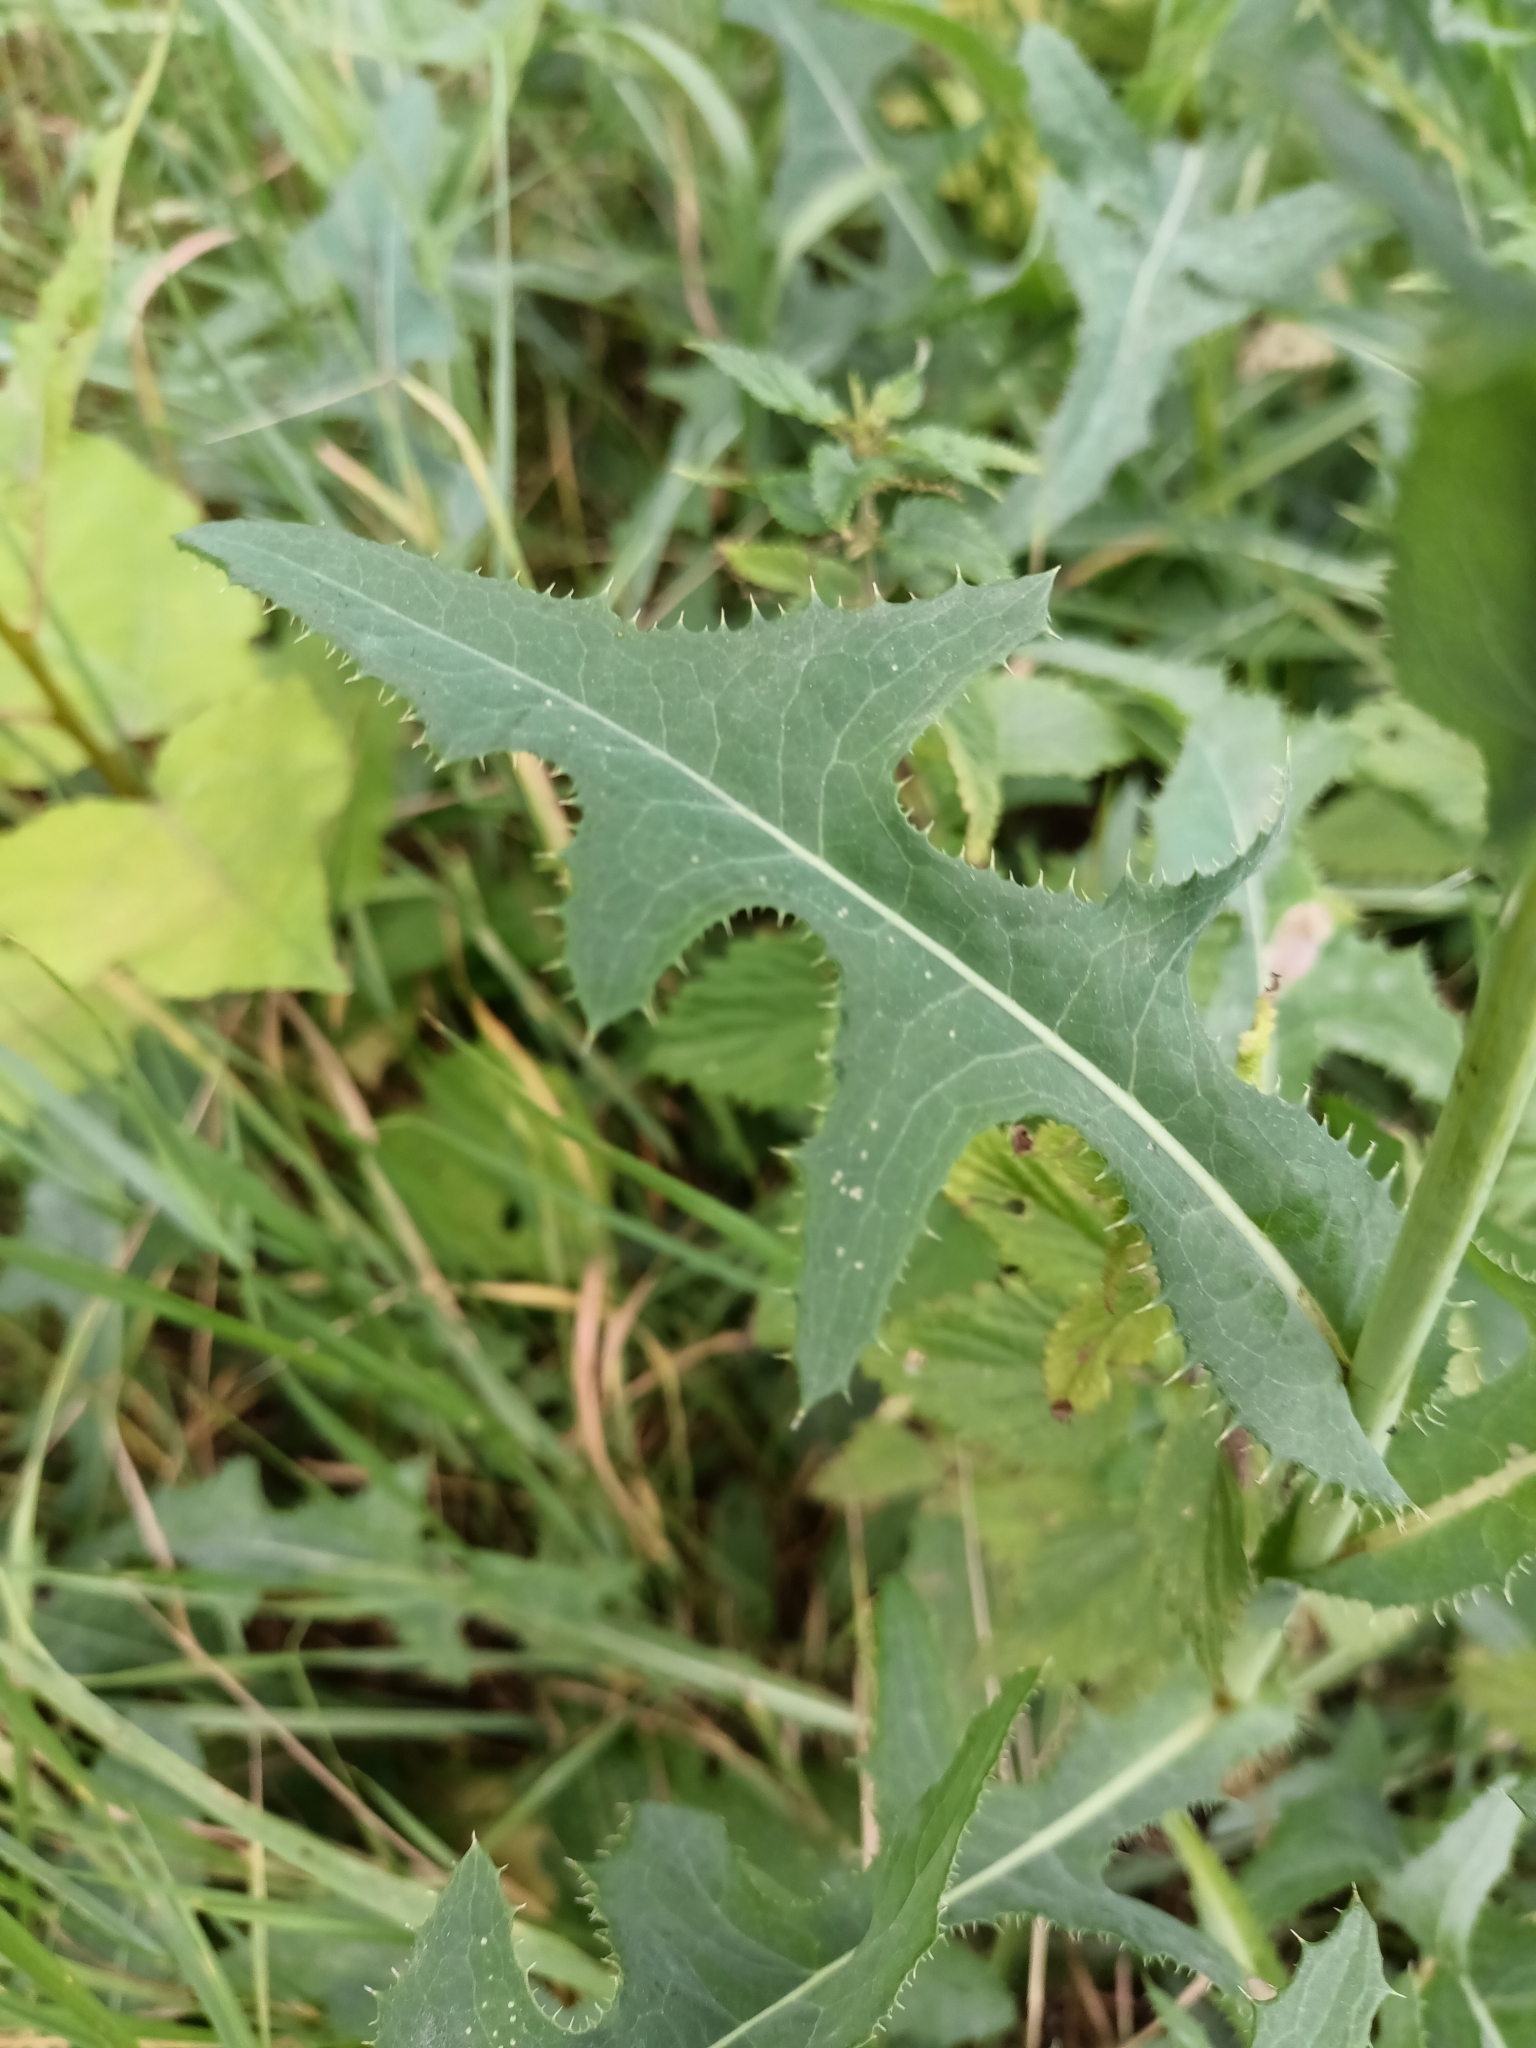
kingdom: Plantae
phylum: Tracheophyta
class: Magnoliopsida
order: Asterales
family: Asteraceae
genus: Sonchus
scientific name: Sonchus arvensis
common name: Perennial sow-thistle
